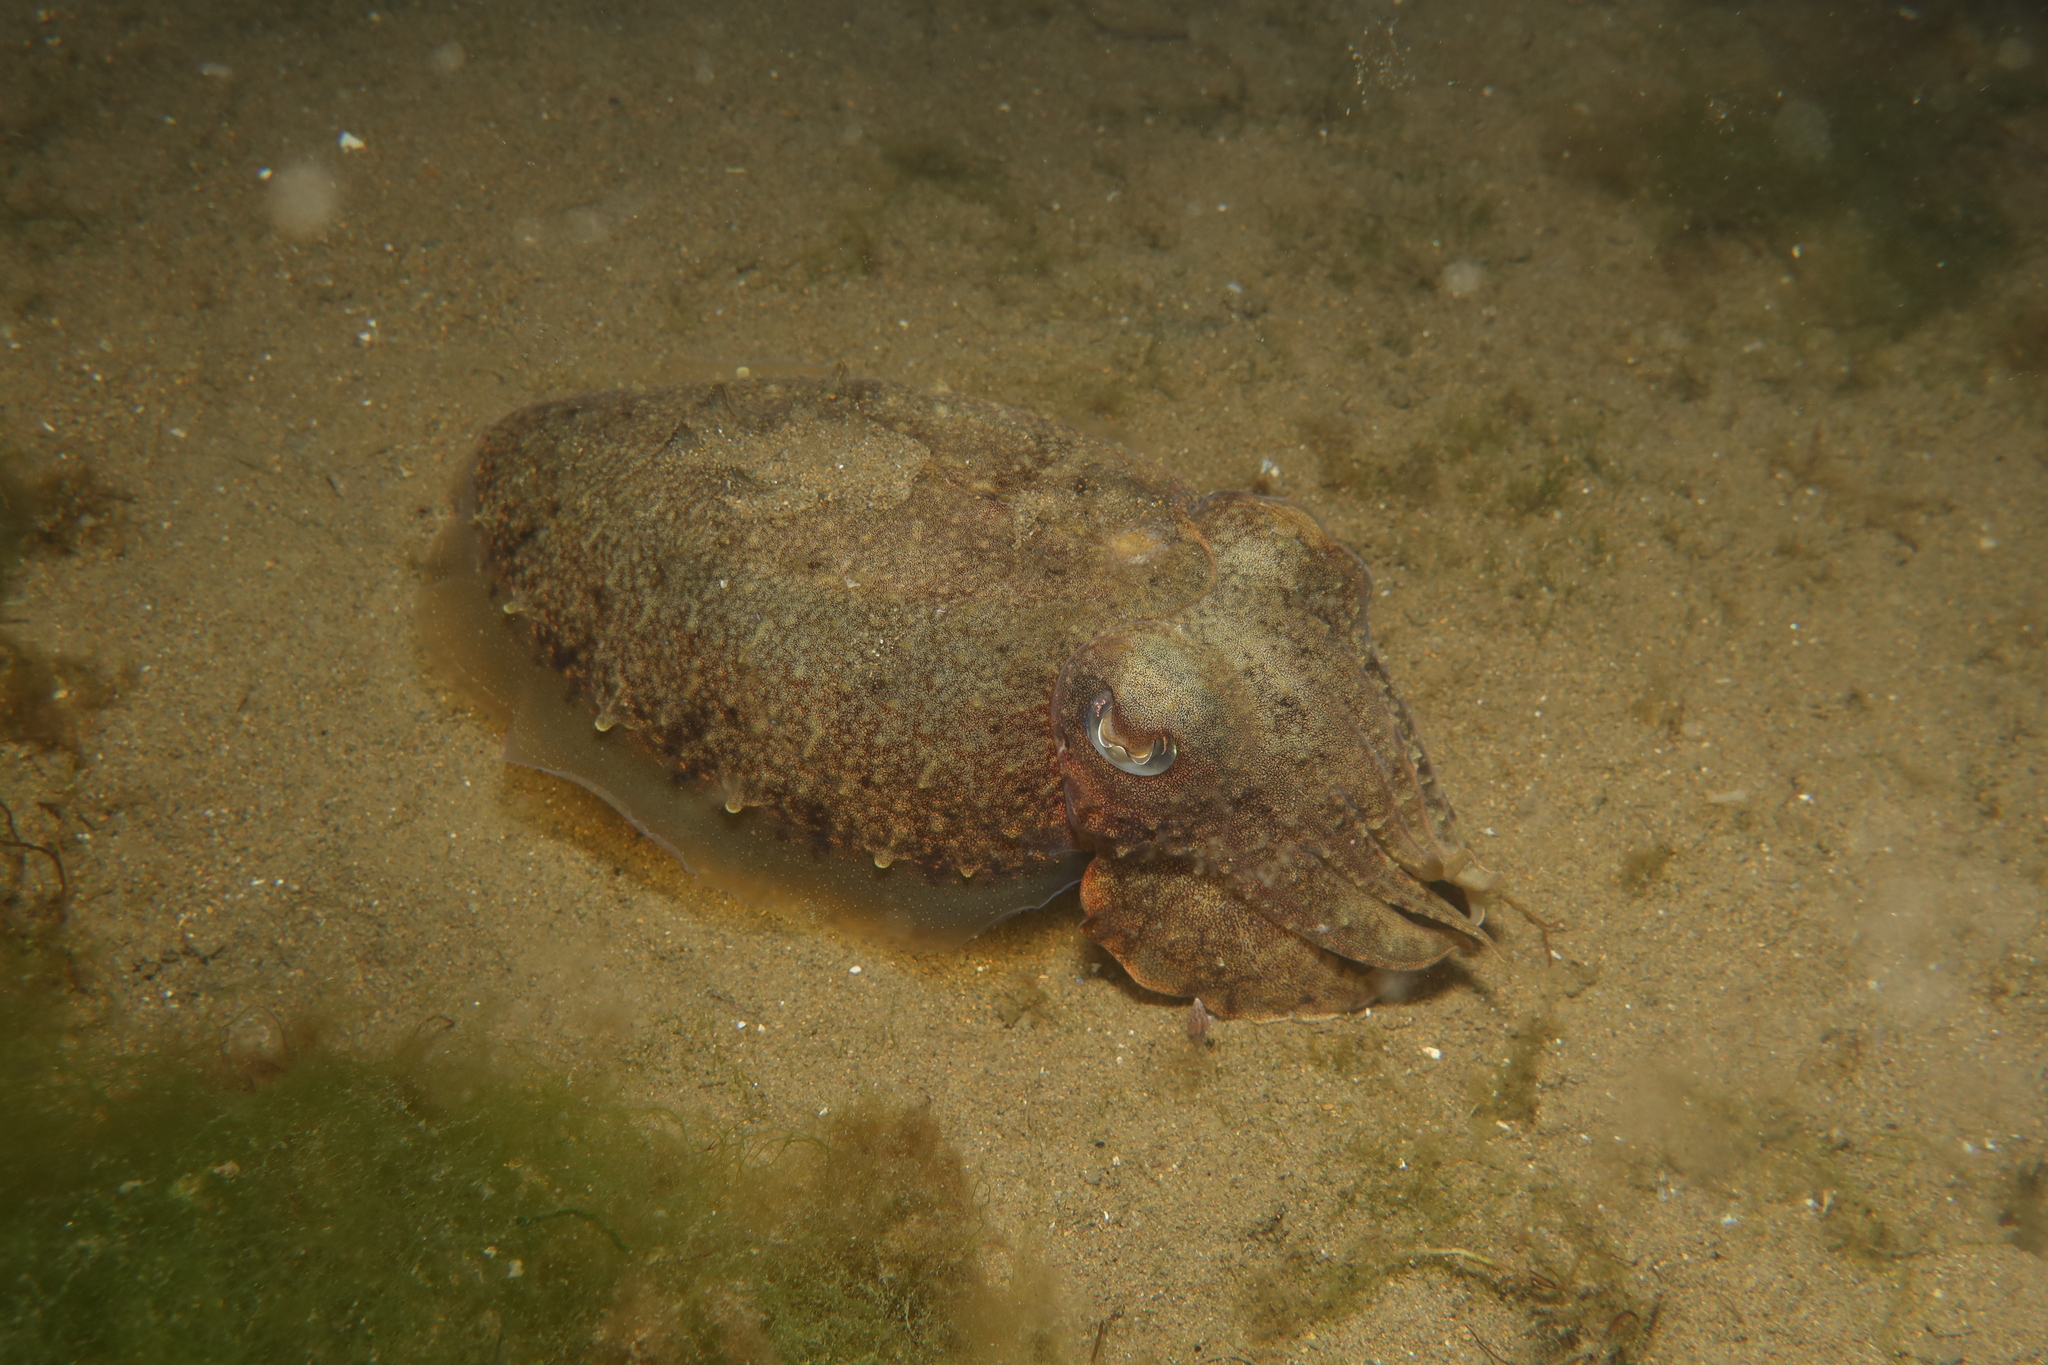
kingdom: Animalia
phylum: Mollusca
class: Cephalopoda
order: Sepiida
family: Sepiidae
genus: Sepia
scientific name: Sepia officinalis
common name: Common cuttlefish
